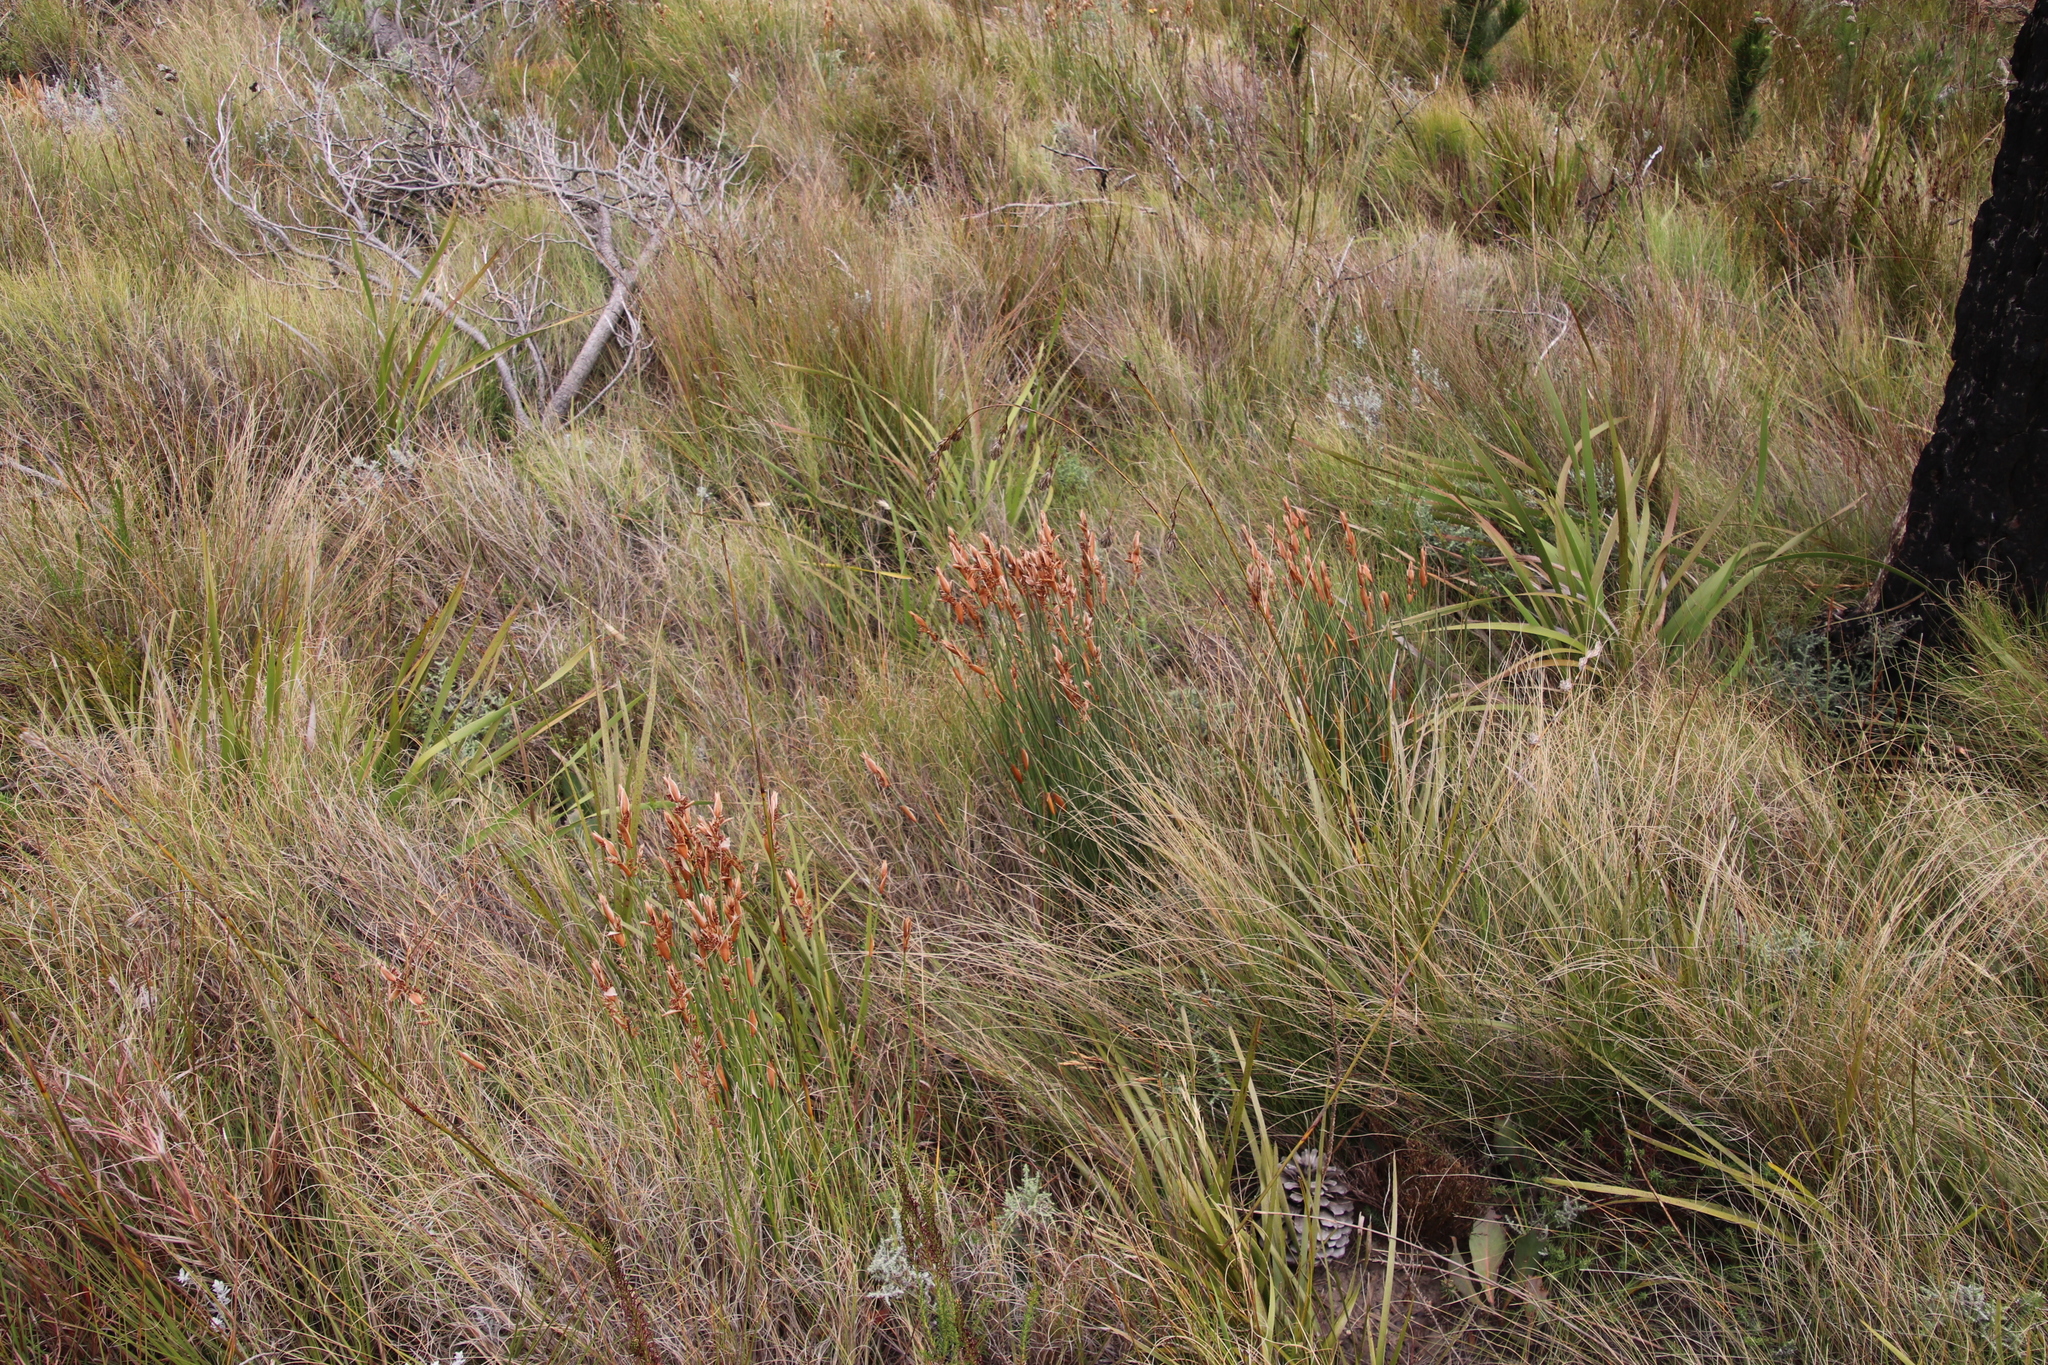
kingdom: Plantae
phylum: Tracheophyta
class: Liliopsida
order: Poales
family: Restionaceae
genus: Elegia
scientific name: Elegia juncea
